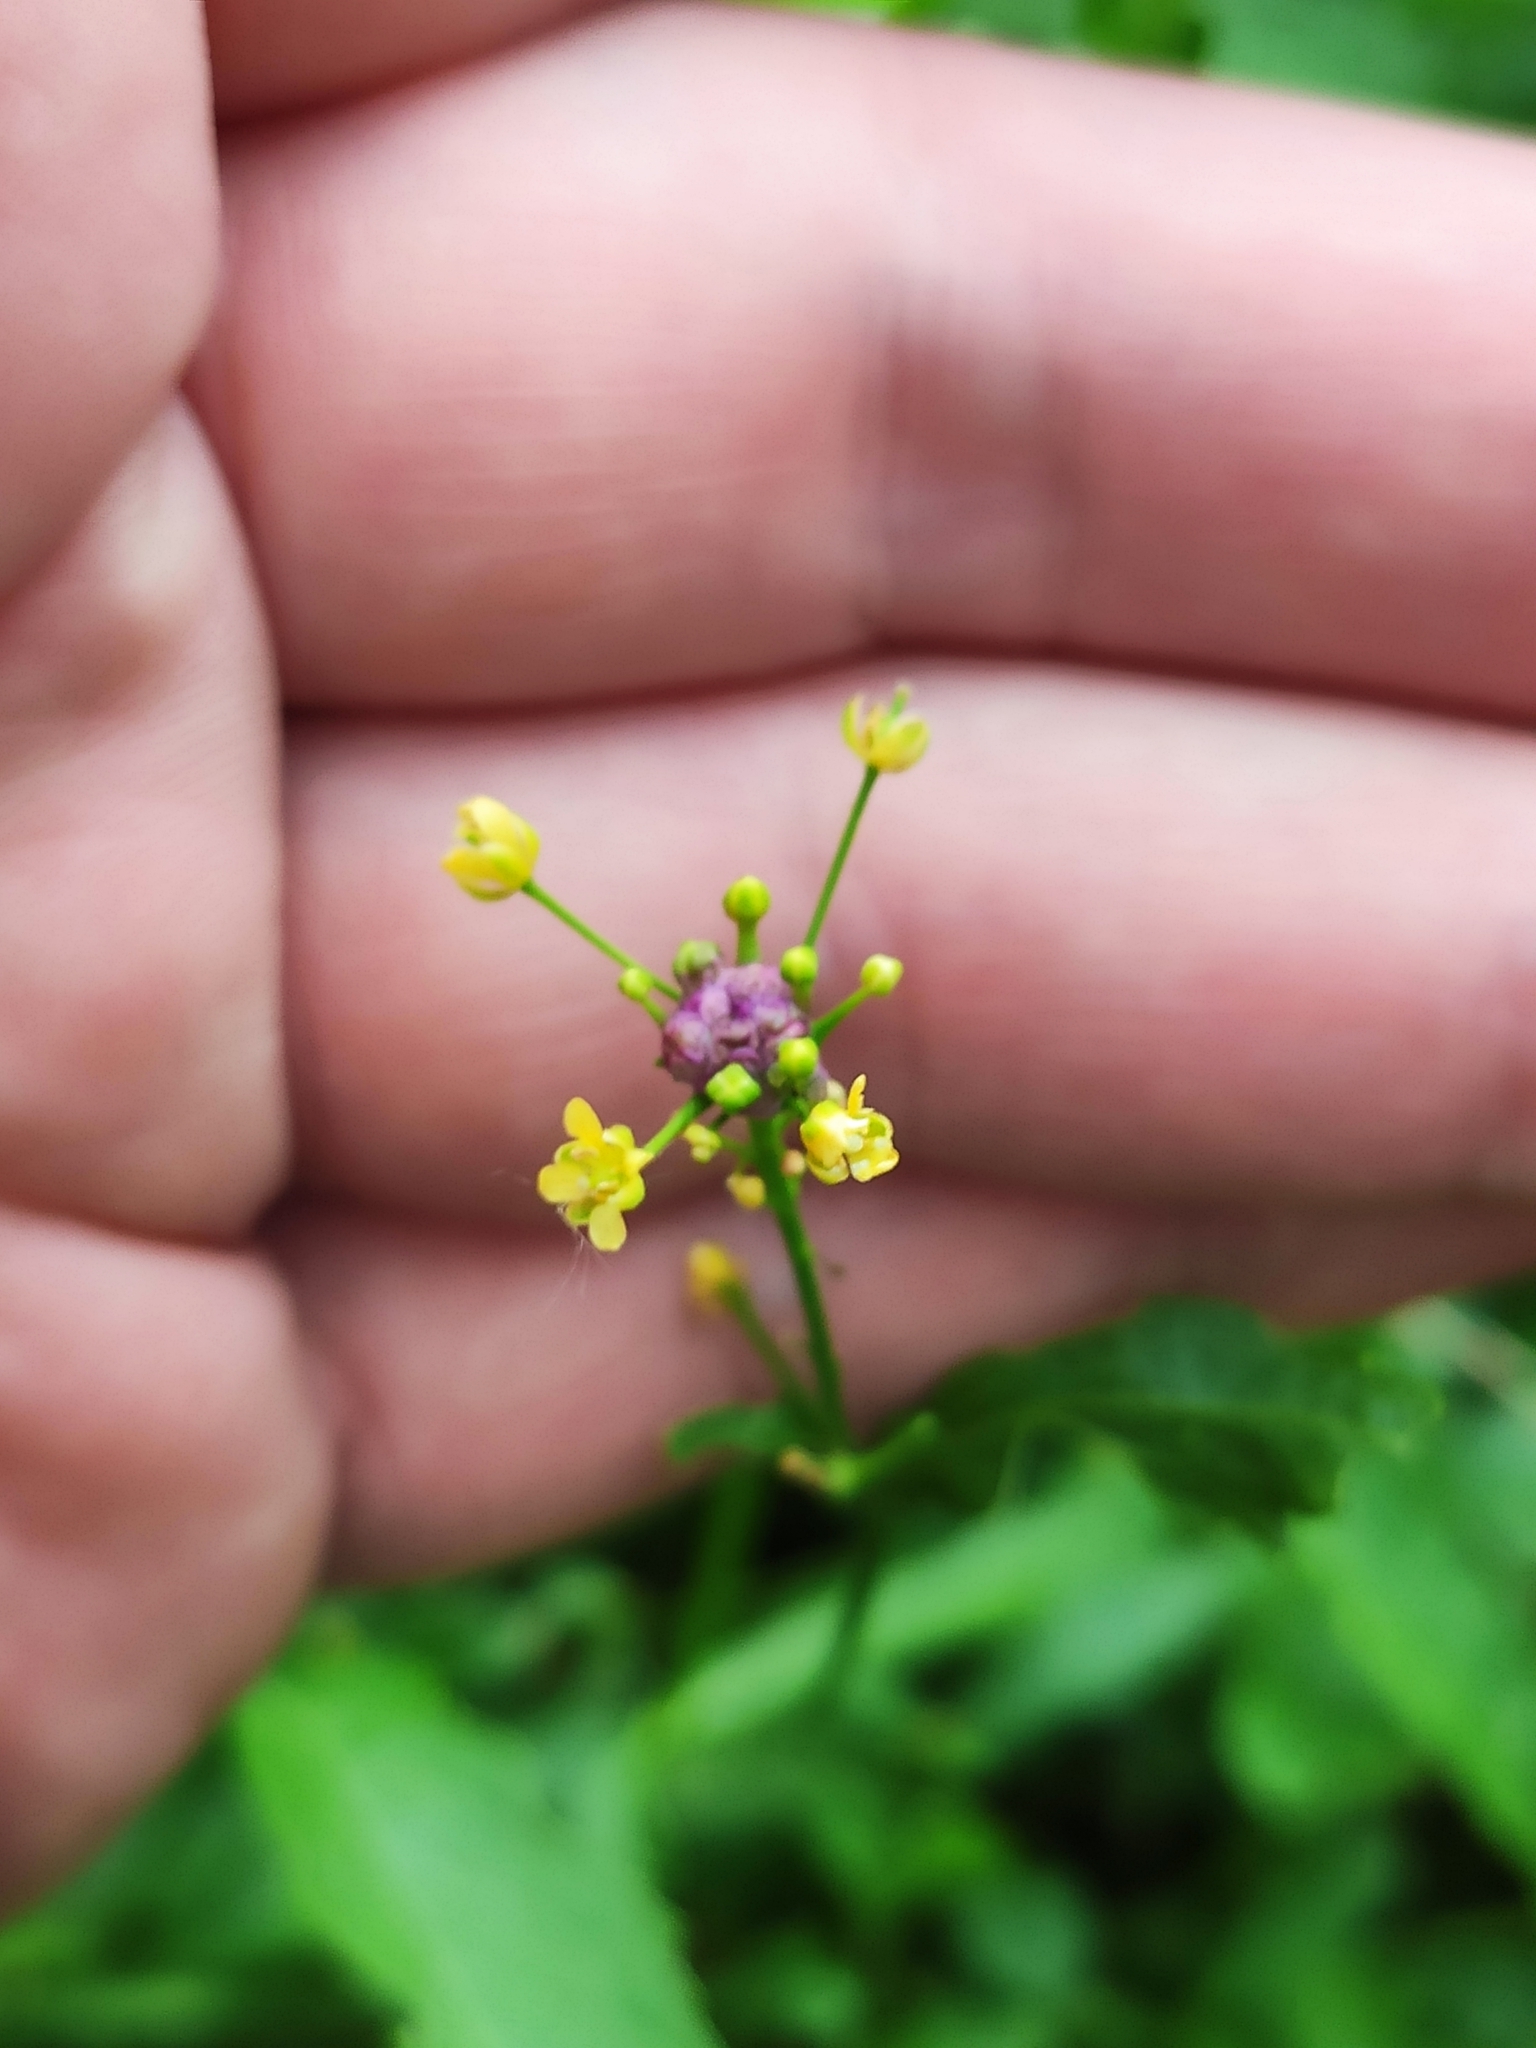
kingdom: Plantae
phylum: Tracheophyta
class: Magnoliopsida
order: Brassicales
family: Brassicaceae
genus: Rorippa
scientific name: Rorippa austriaca
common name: Austrian yellow-cress
